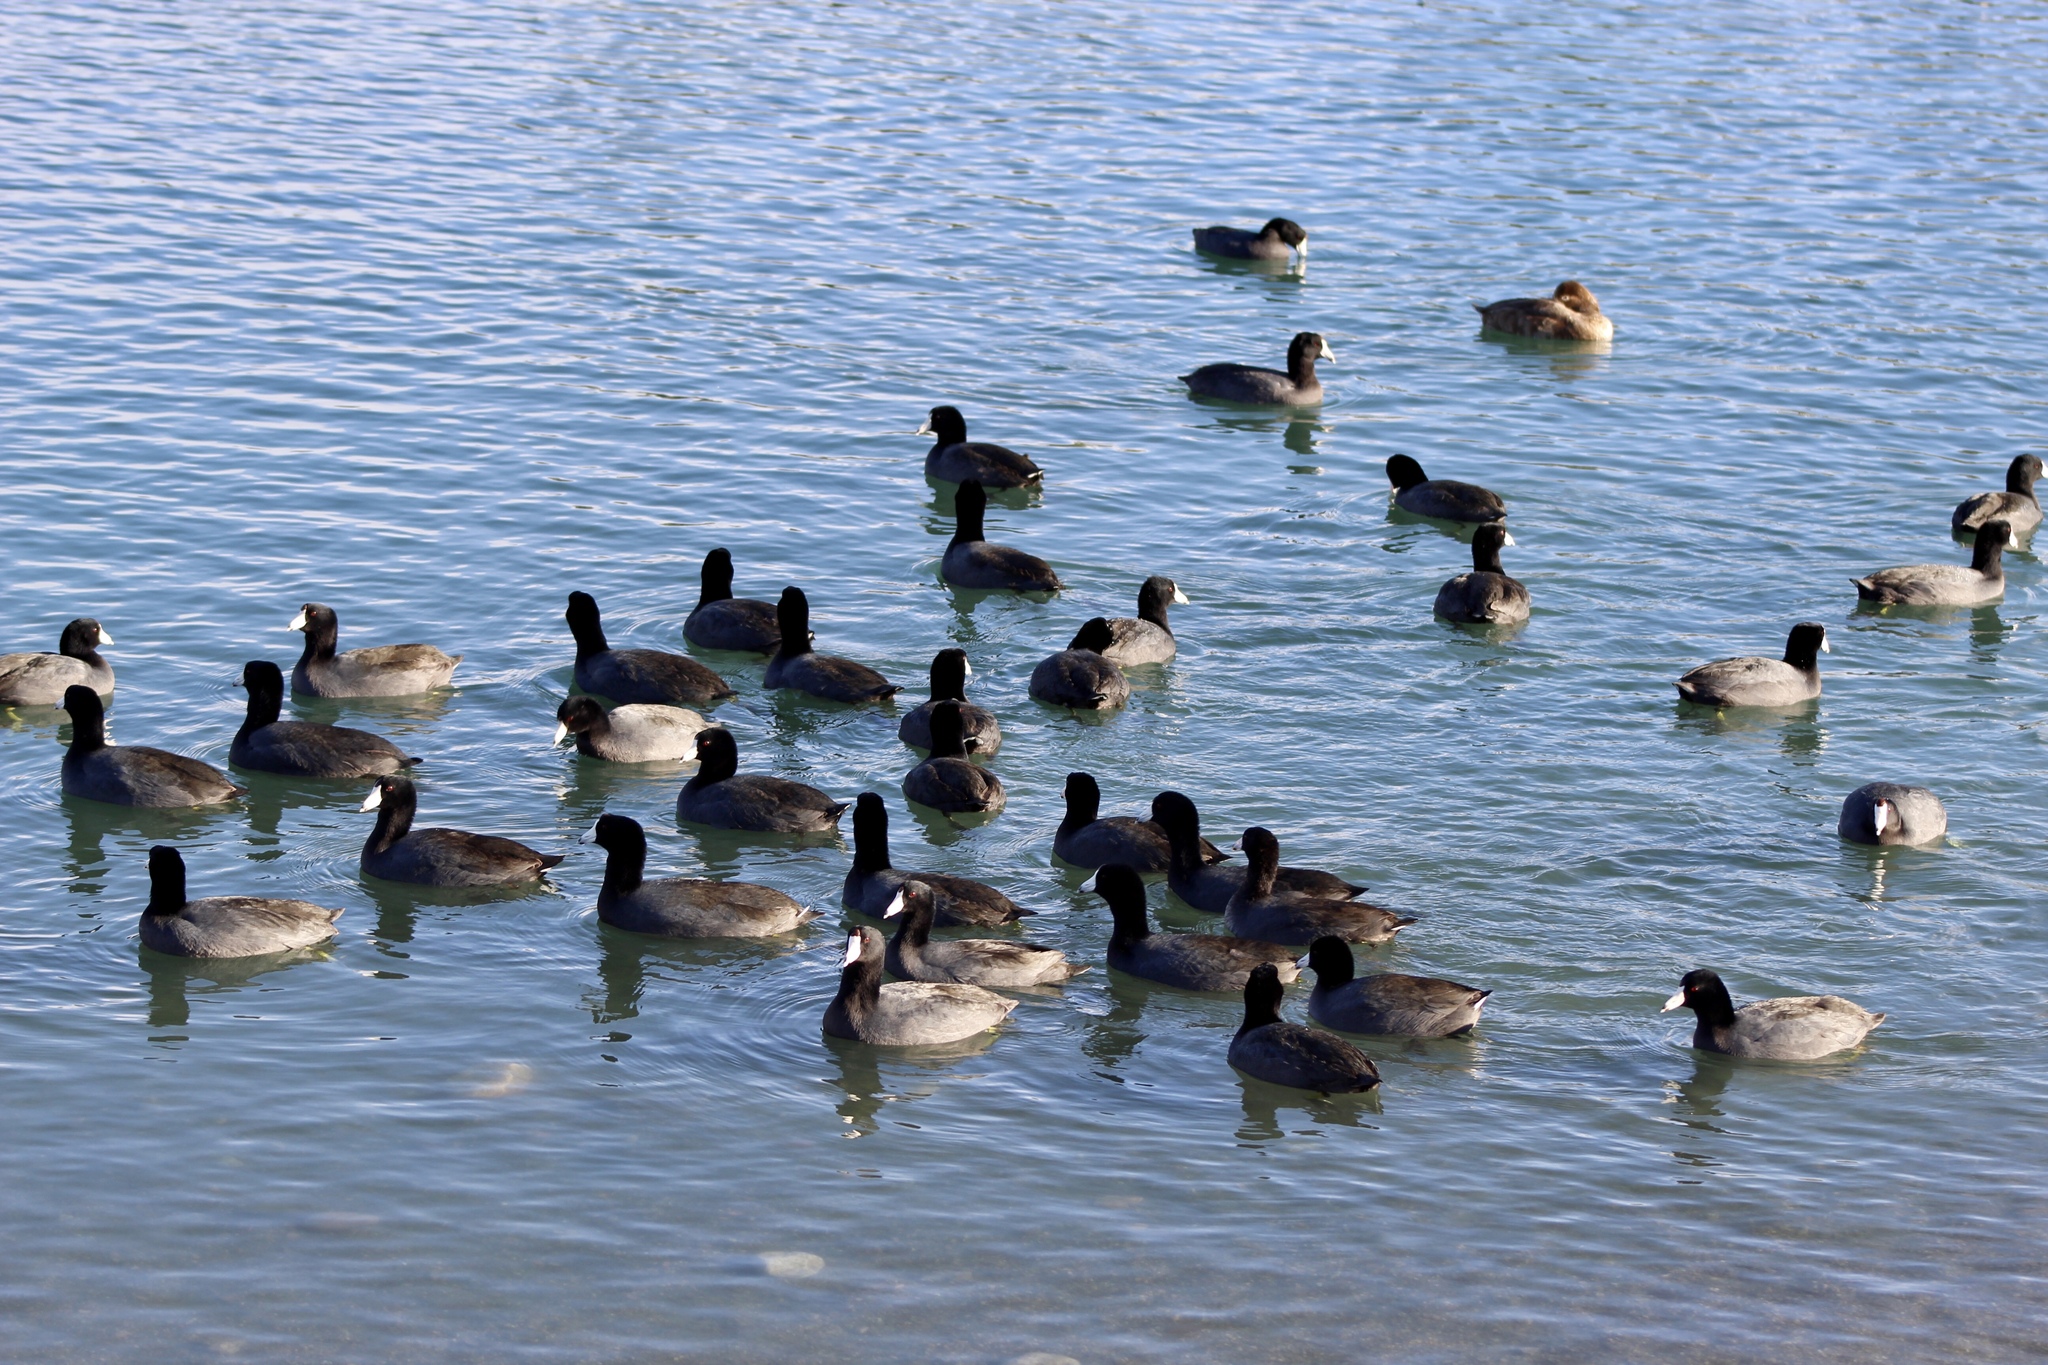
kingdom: Animalia
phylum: Chordata
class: Aves
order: Gruiformes
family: Rallidae
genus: Fulica
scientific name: Fulica americana
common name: American coot
